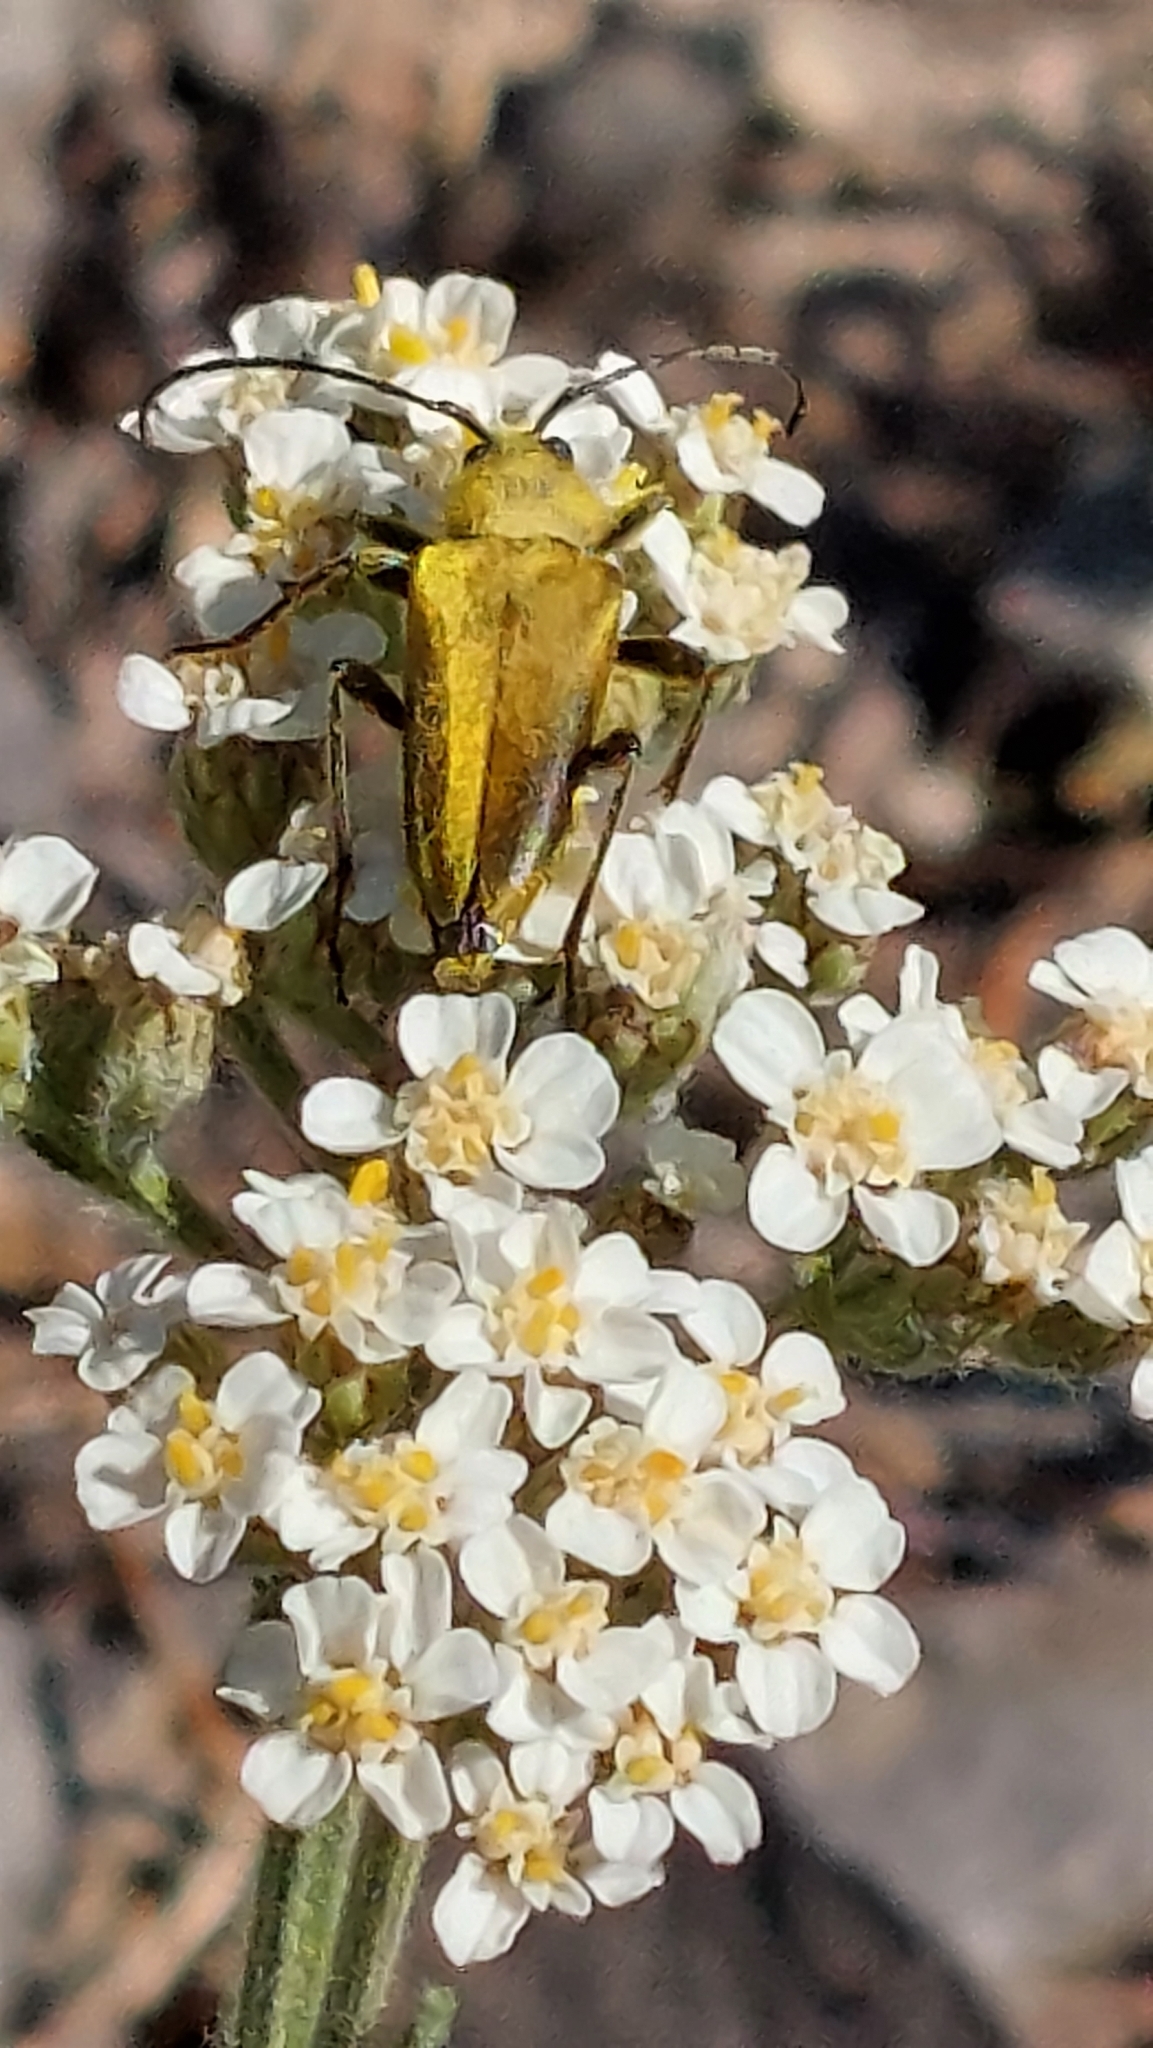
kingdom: Animalia
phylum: Arthropoda
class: Insecta
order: Coleoptera
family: Cerambycidae
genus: Cosmosalia
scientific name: Cosmosalia chrysocoma
